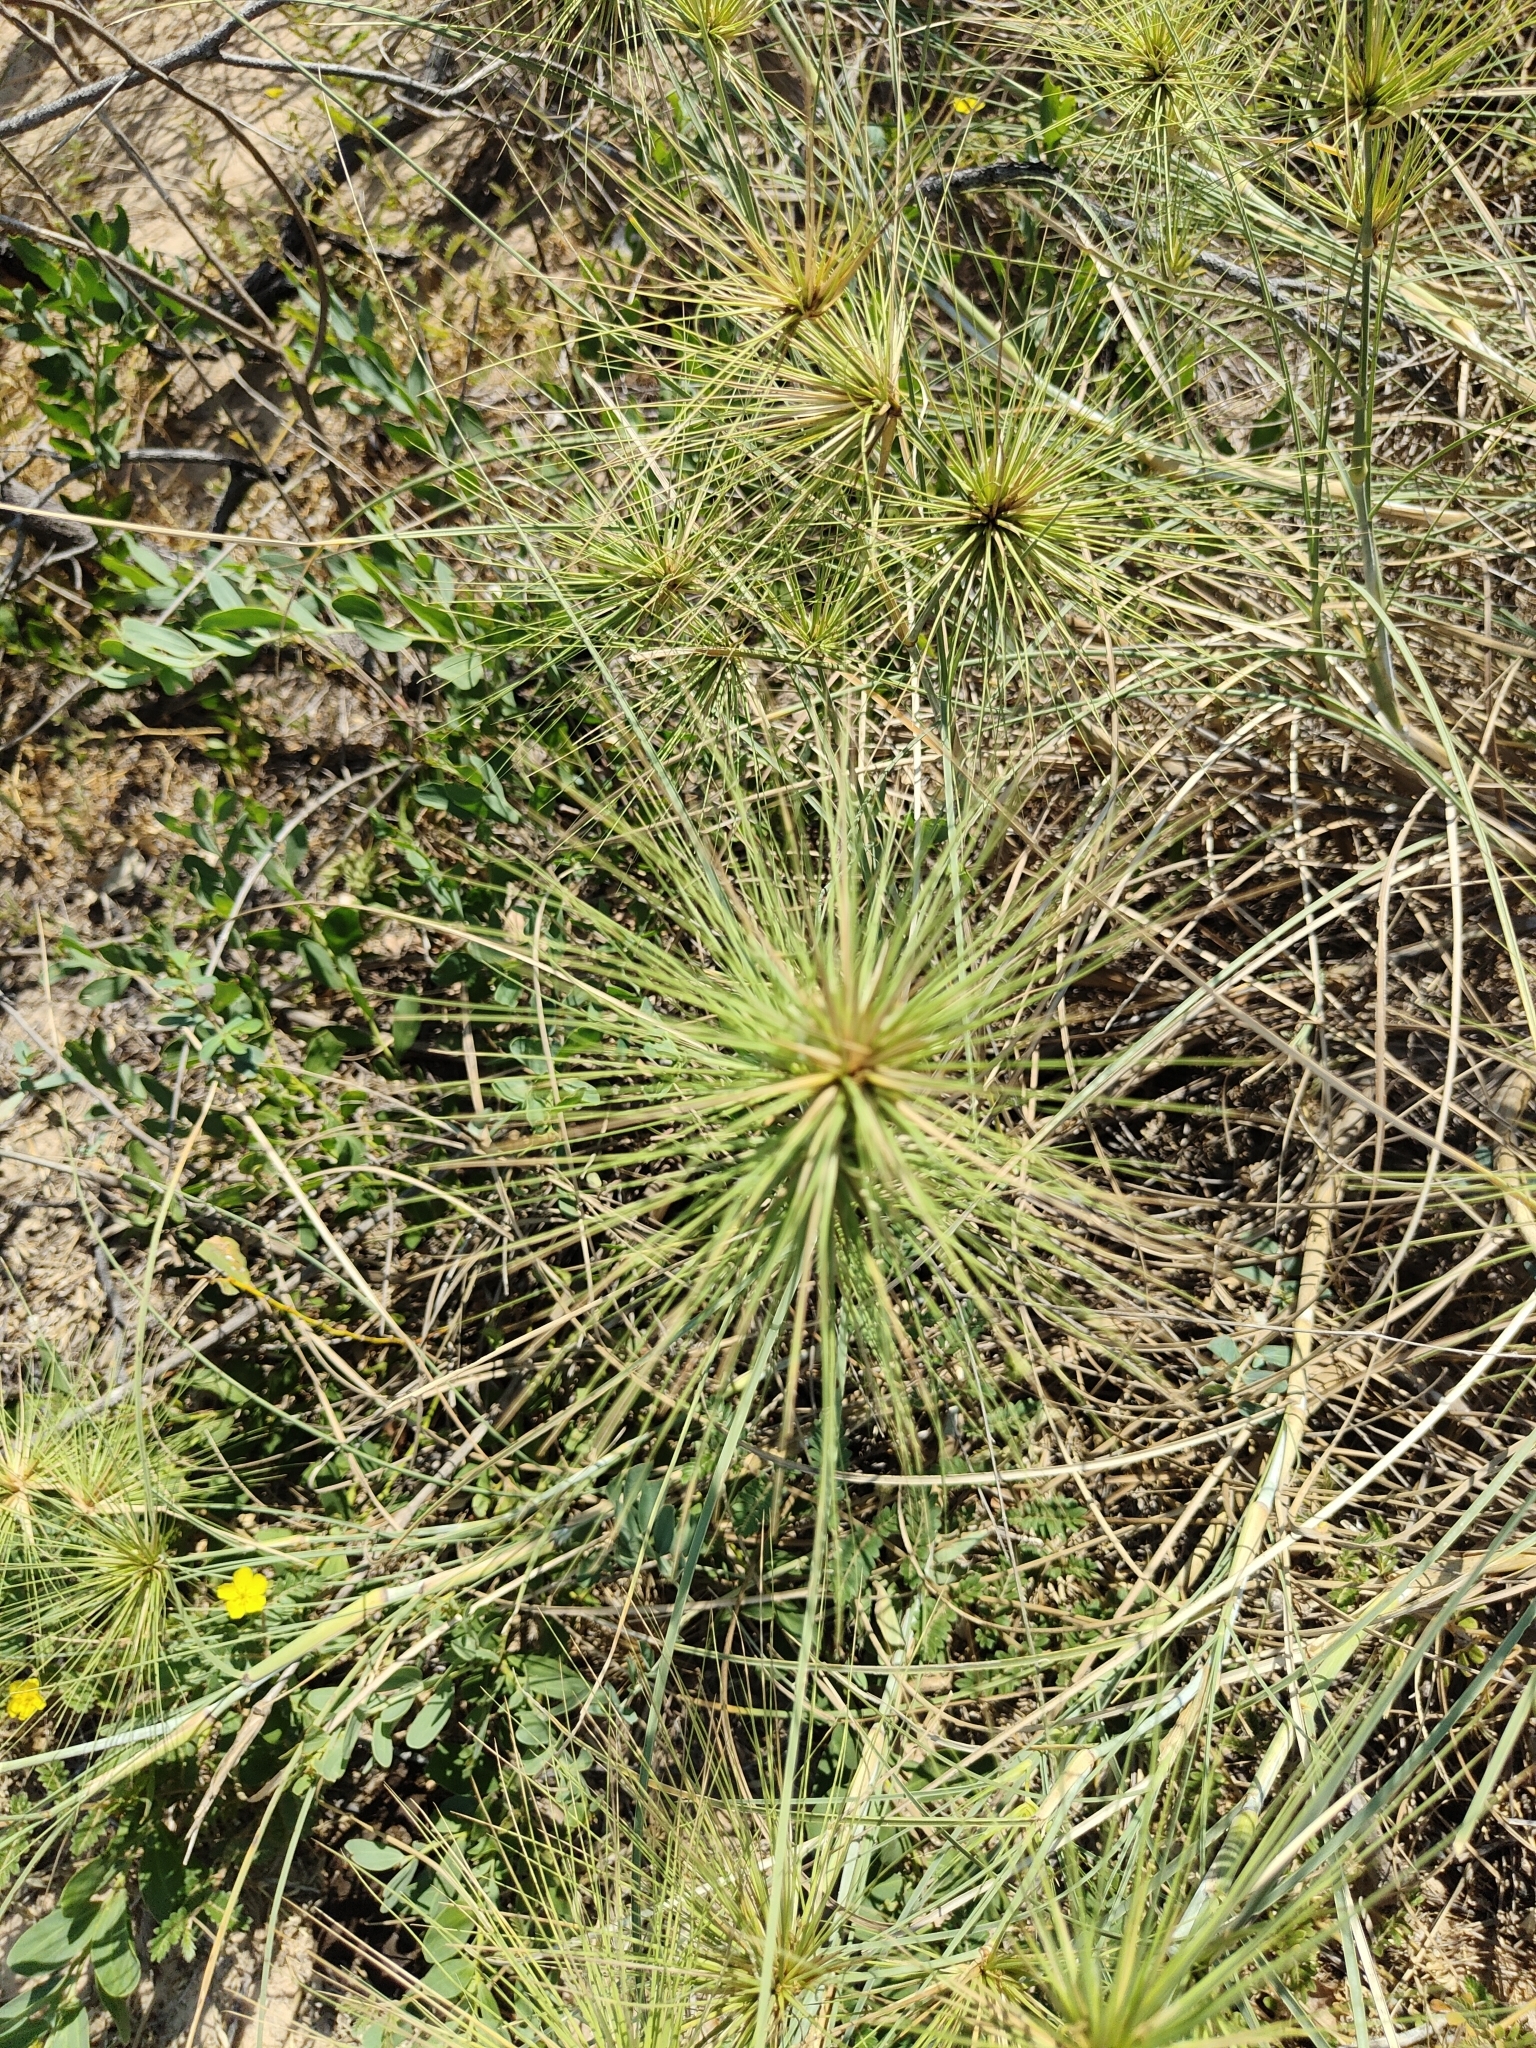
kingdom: Plantae
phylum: Tracheophyta
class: Liliopsida
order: Poales
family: Poaceae
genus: Spinifex
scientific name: Spinifex longifolius
